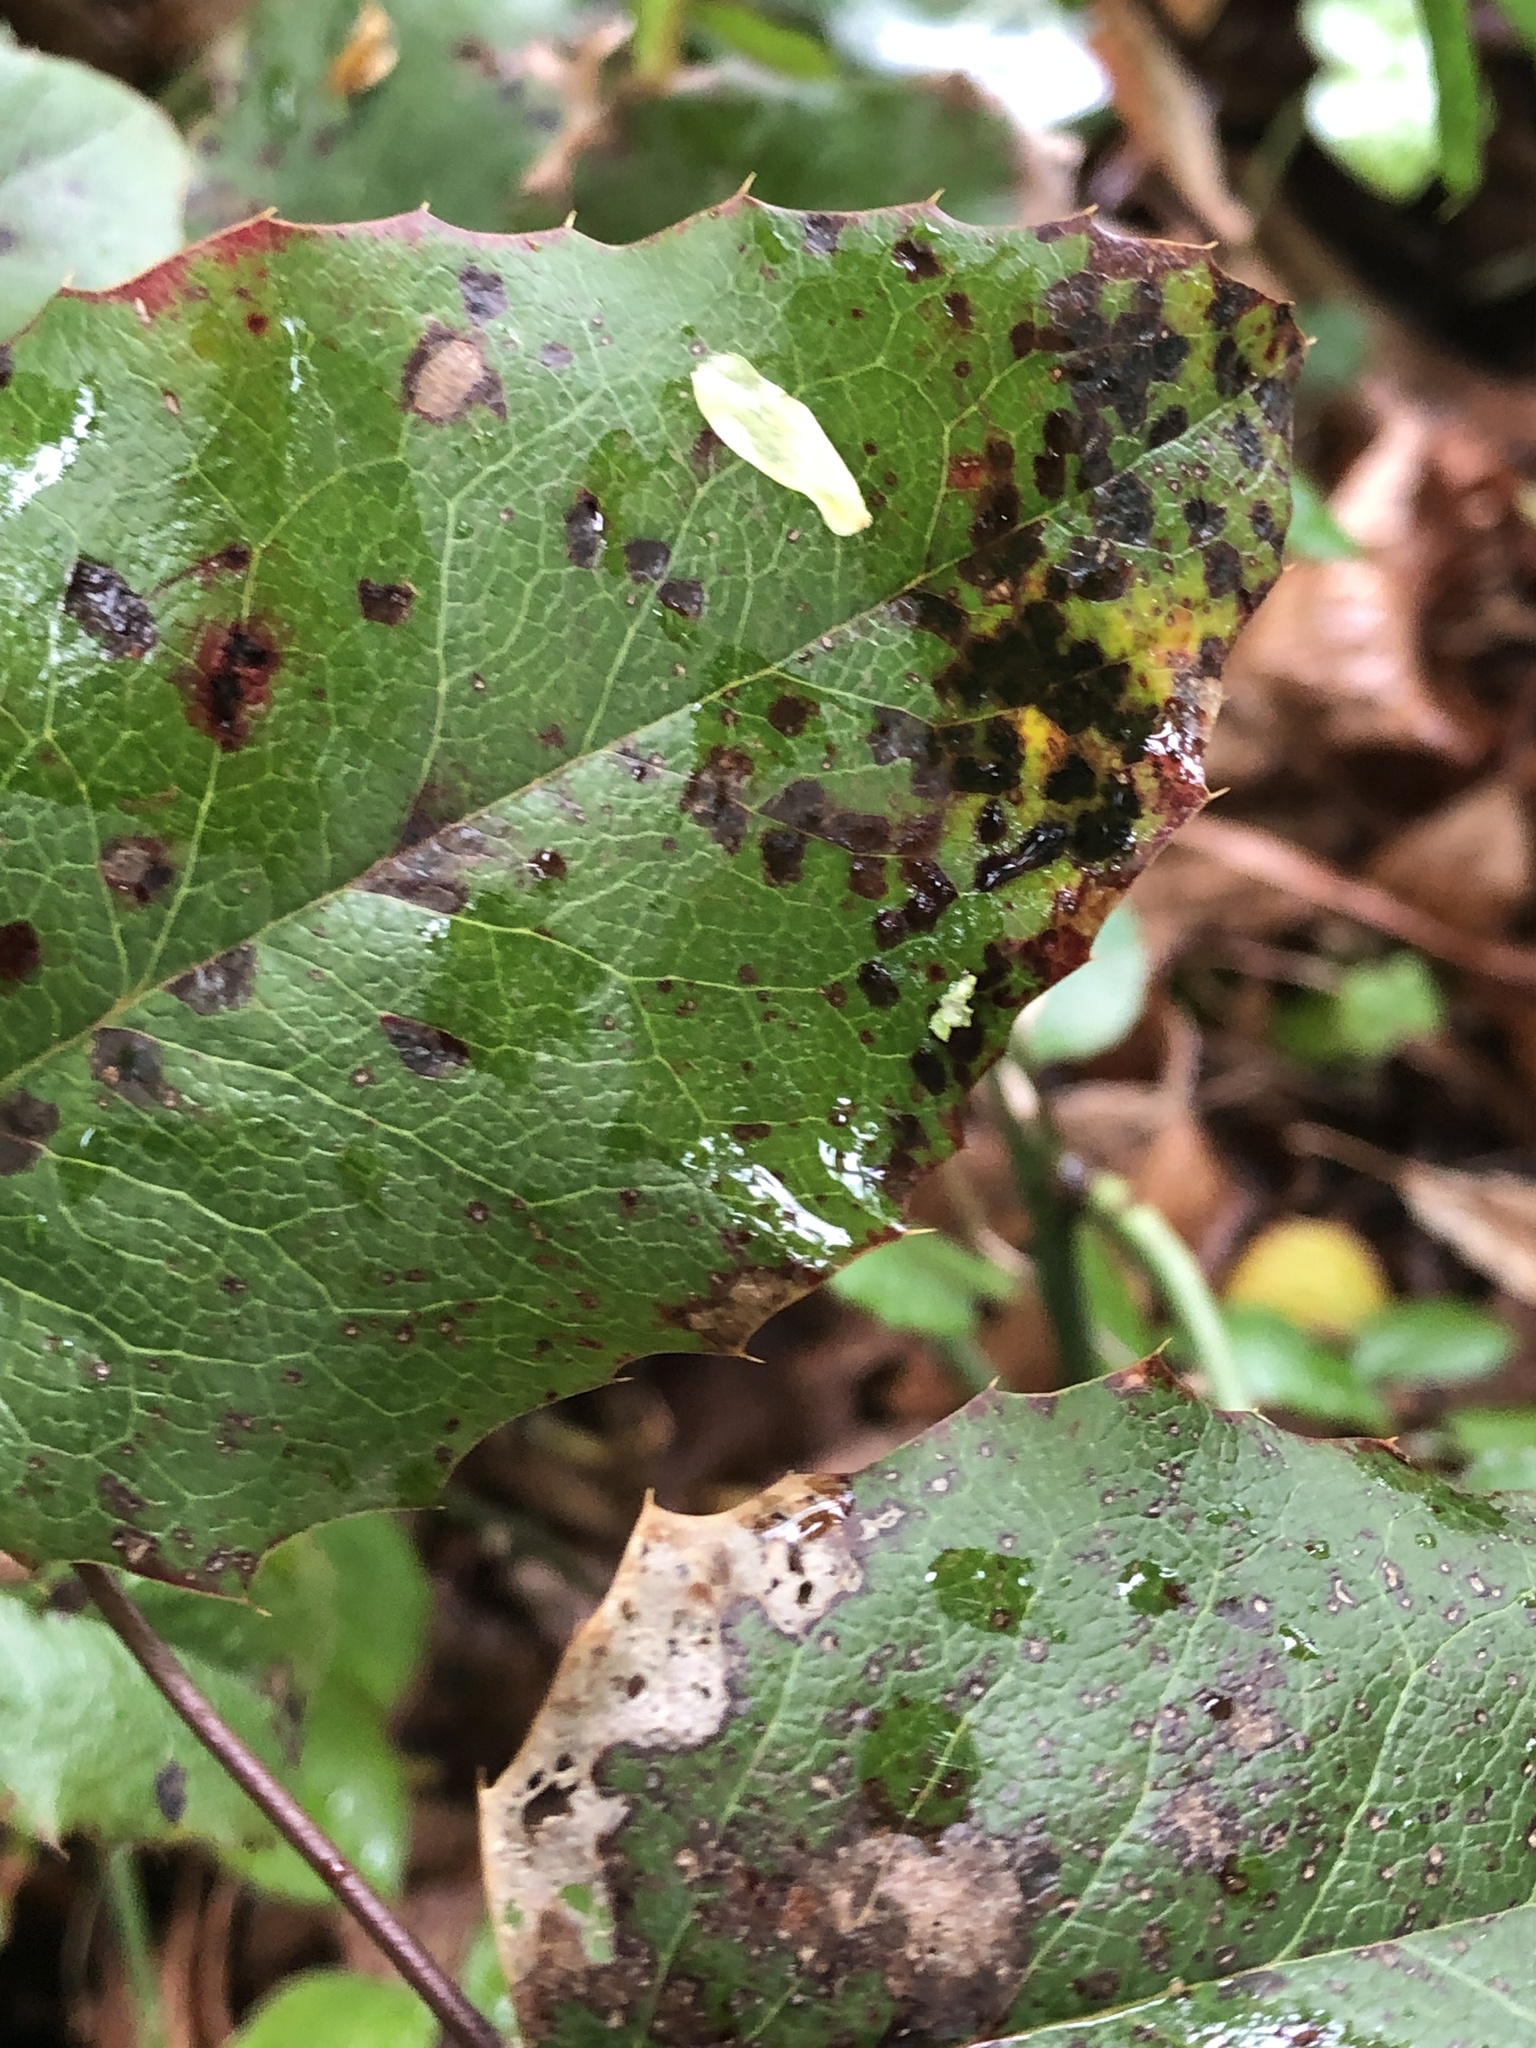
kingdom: Fungi
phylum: Basidiomycota
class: Pucciniomycetes
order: Pucciniales
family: Pucciniaceae
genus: Cumminsiella
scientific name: Cumminsiella mirabilissima
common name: Mahonia rust
